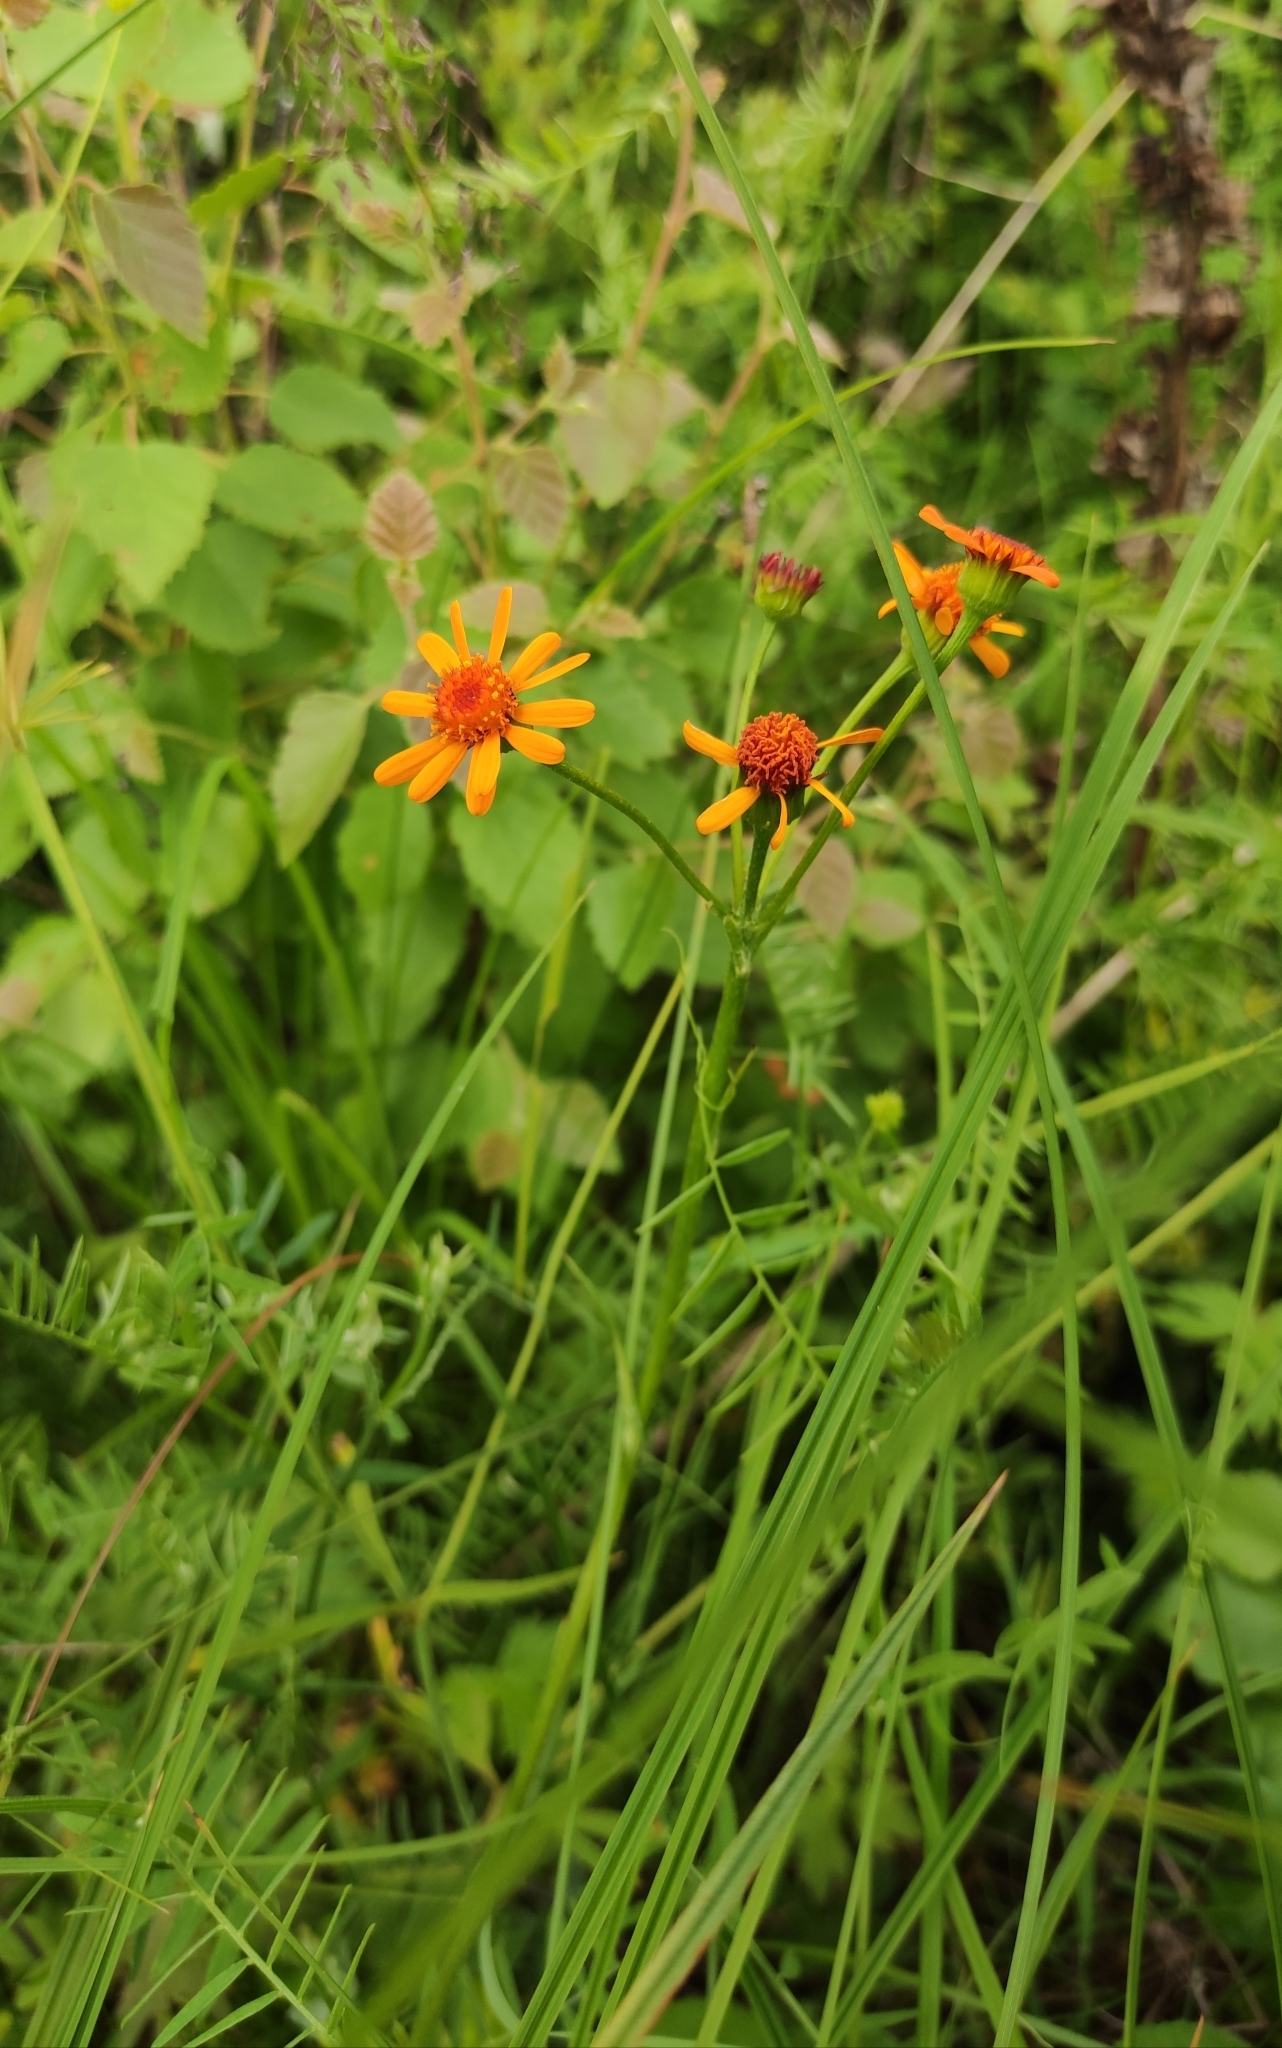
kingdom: Plantae
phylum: Tracheophyta
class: Magnoliopsida
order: Asterales
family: Asteraceae
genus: Tephroseris
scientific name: Tephroseris porphyrantha
